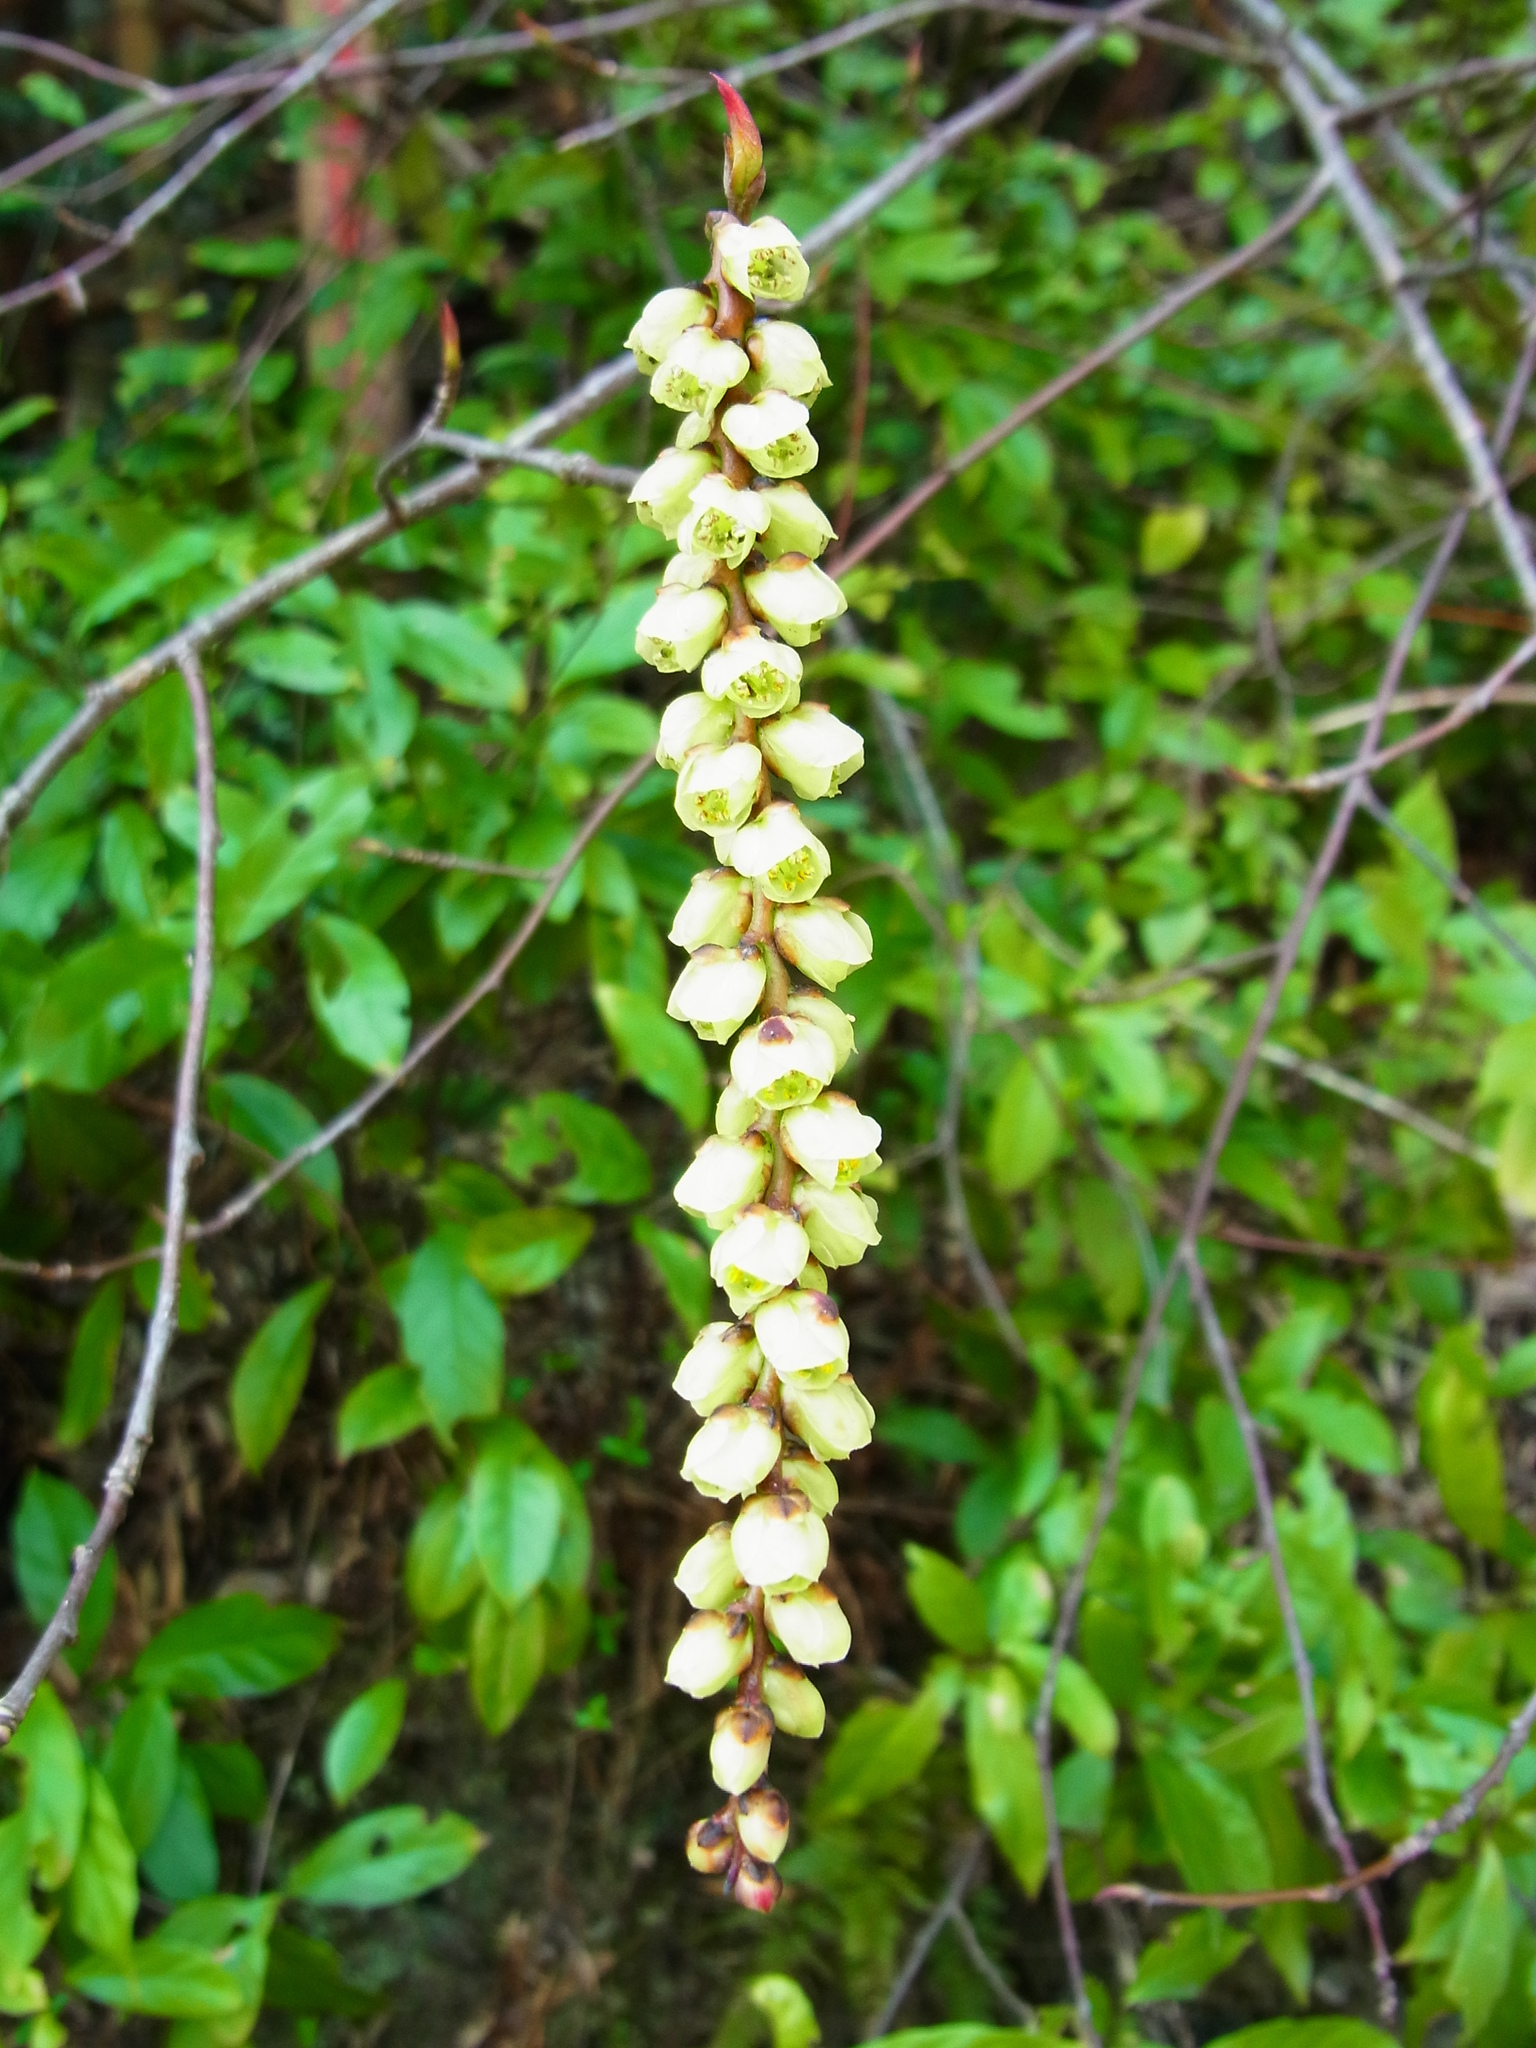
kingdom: Plantae
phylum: Tracheophyta
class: Magnoliopsida
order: Crossosomatales
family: Stachyuraceae
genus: Stachyurus
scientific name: Stachyurus praecox
